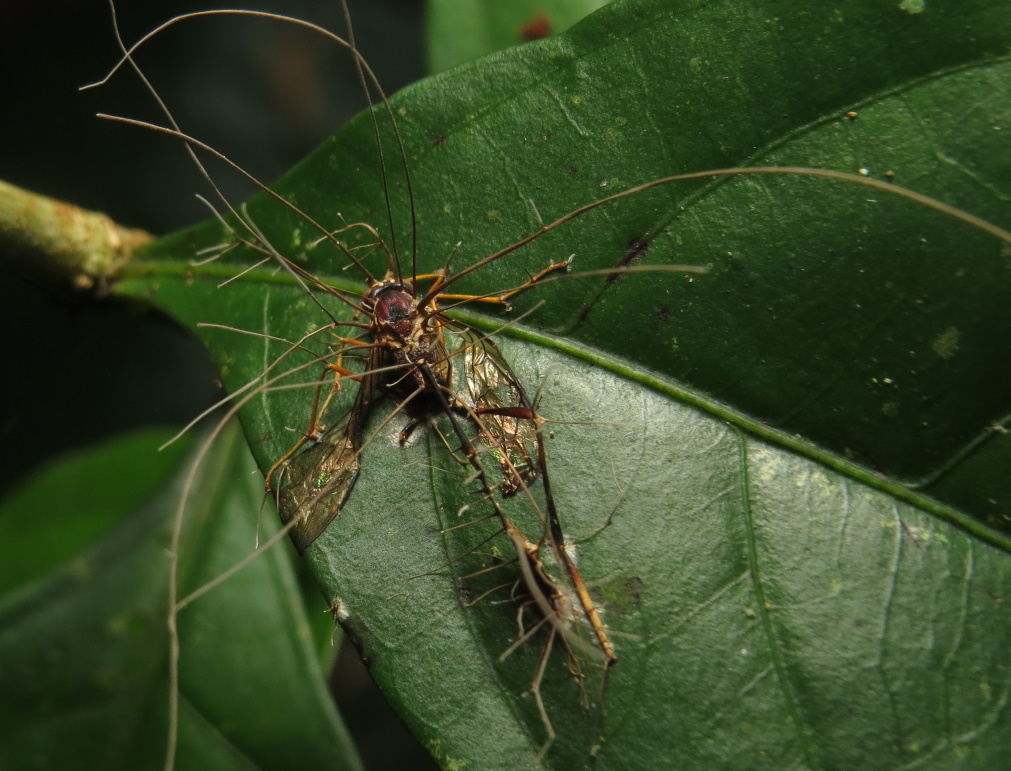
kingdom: Fungi
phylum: Ascomycota
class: Sordariomycetes
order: Hypocreales
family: Ophiocordycipitaceae
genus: Ophiocordyceps
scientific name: Ophiocordyceps humbertii
